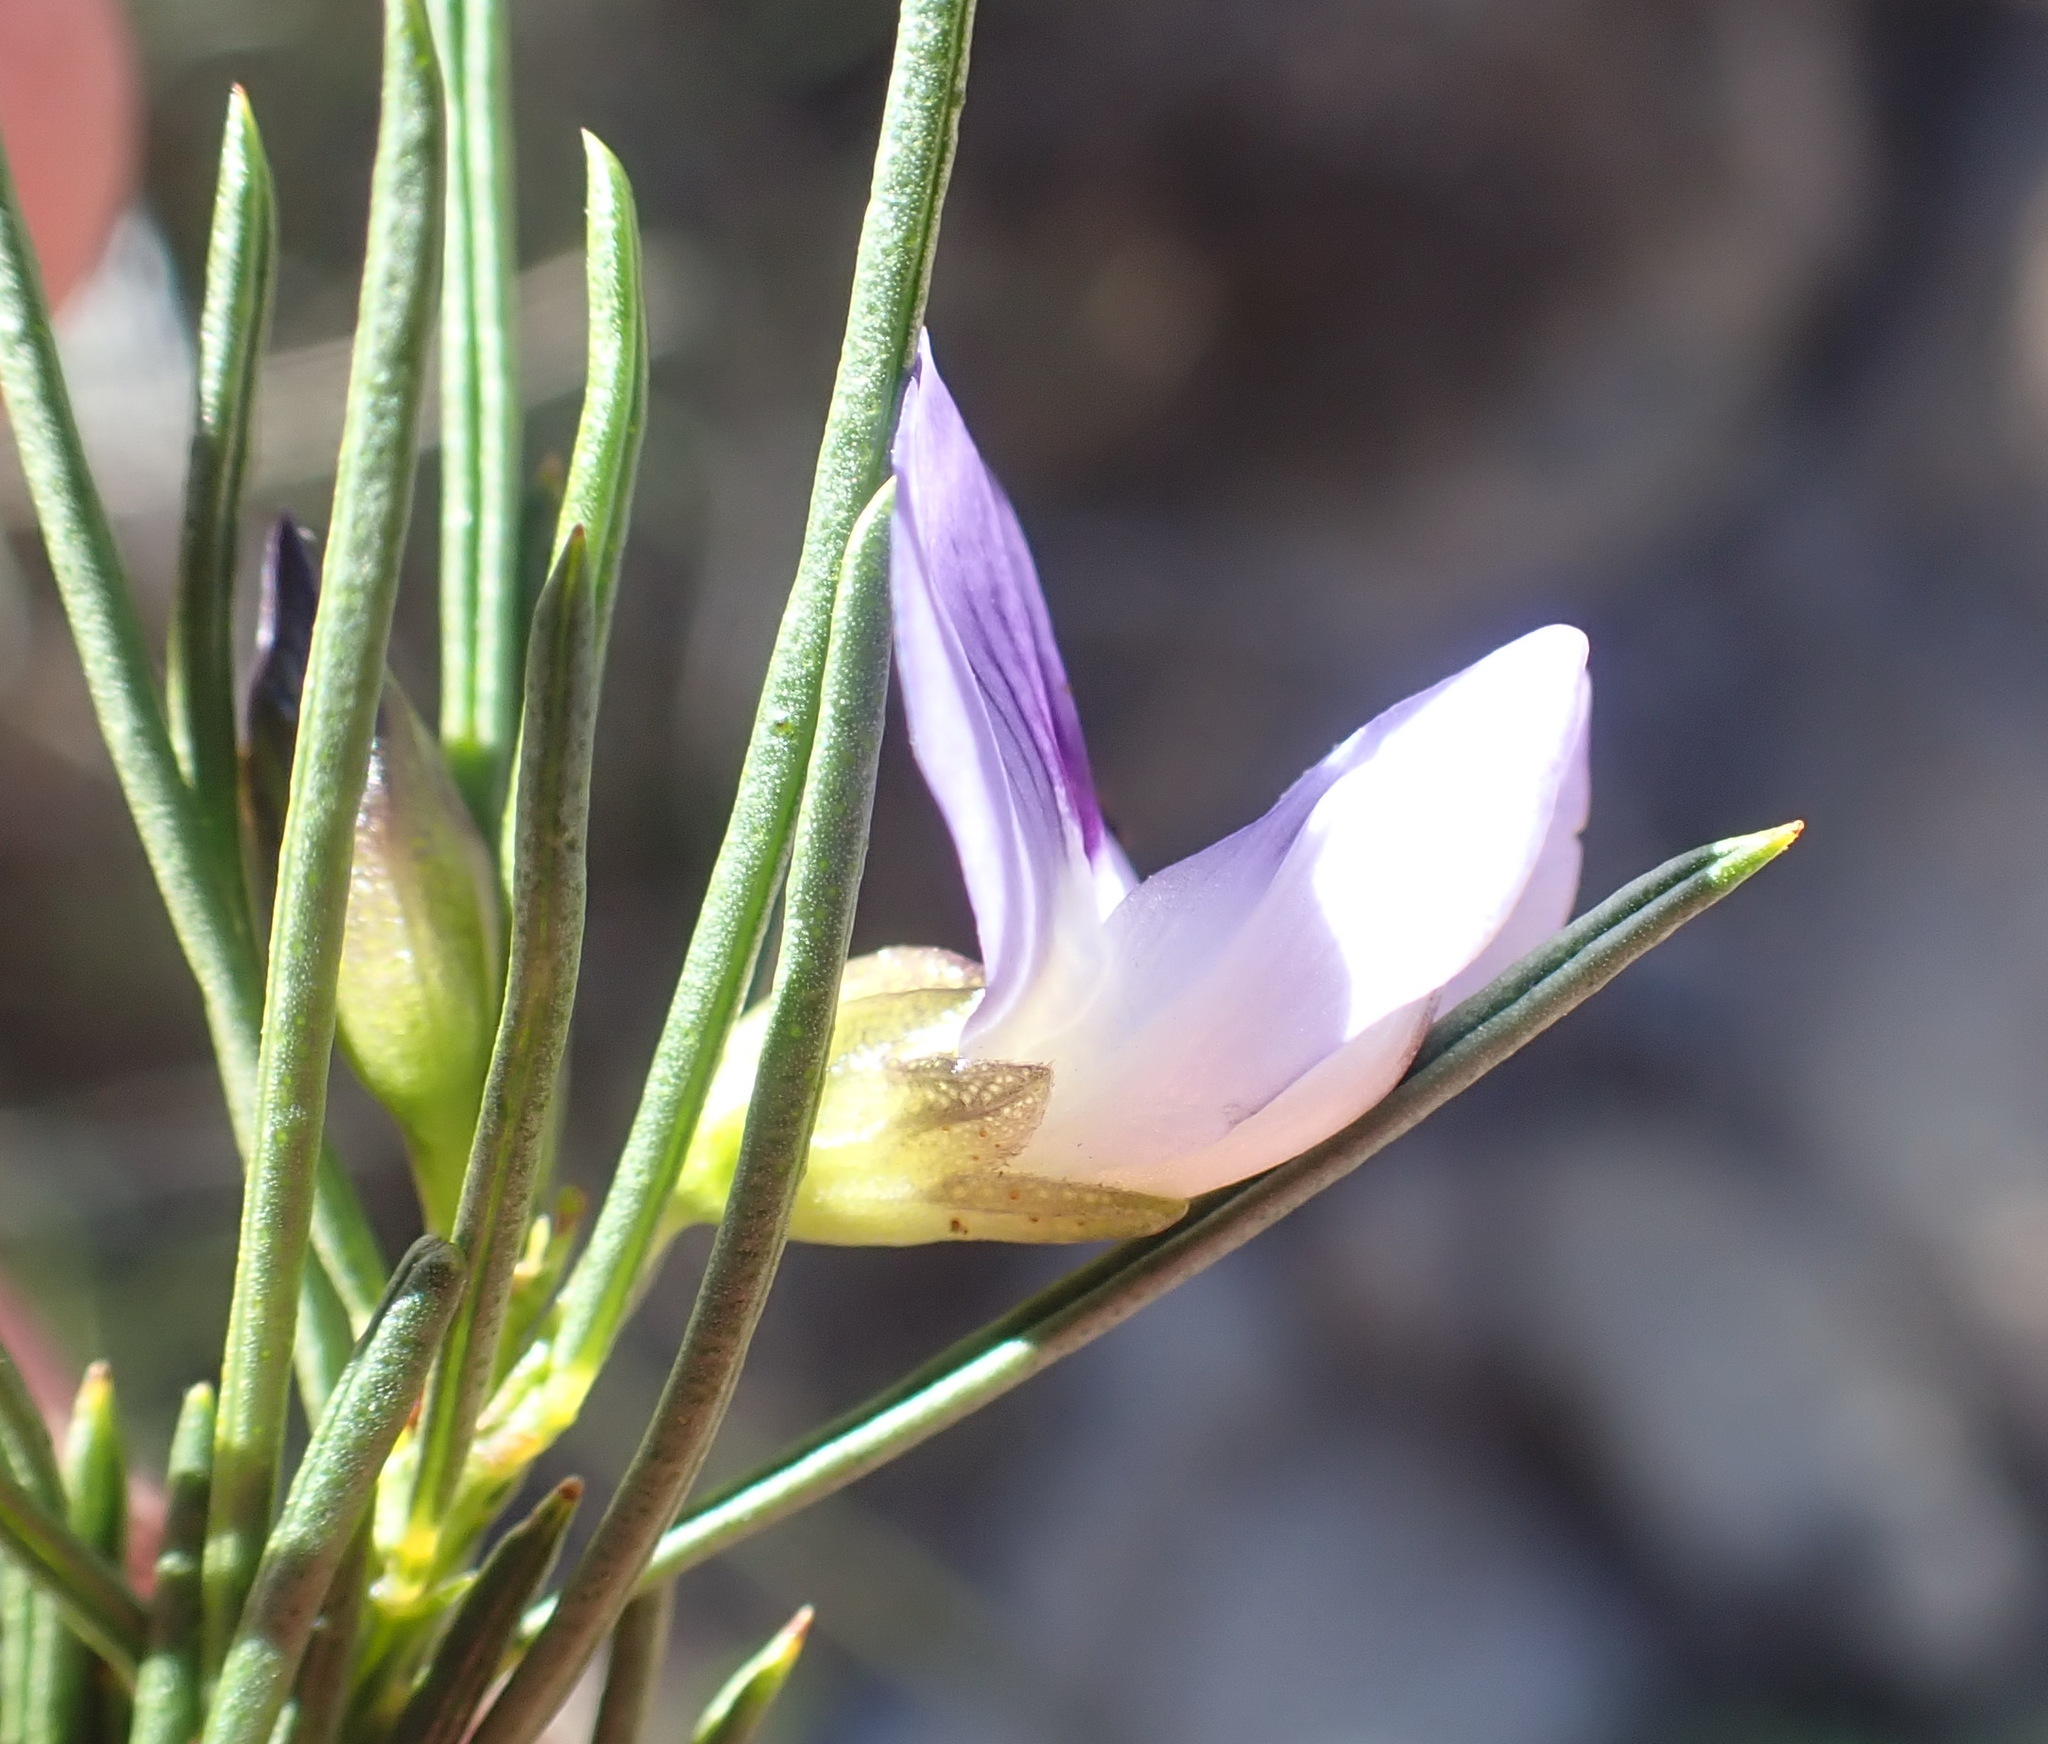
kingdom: Plantae
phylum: Tracheophyta
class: Magnoliopsida
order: Fabales
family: Fabaceae
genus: Psoralea
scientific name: Psoralea sordida
